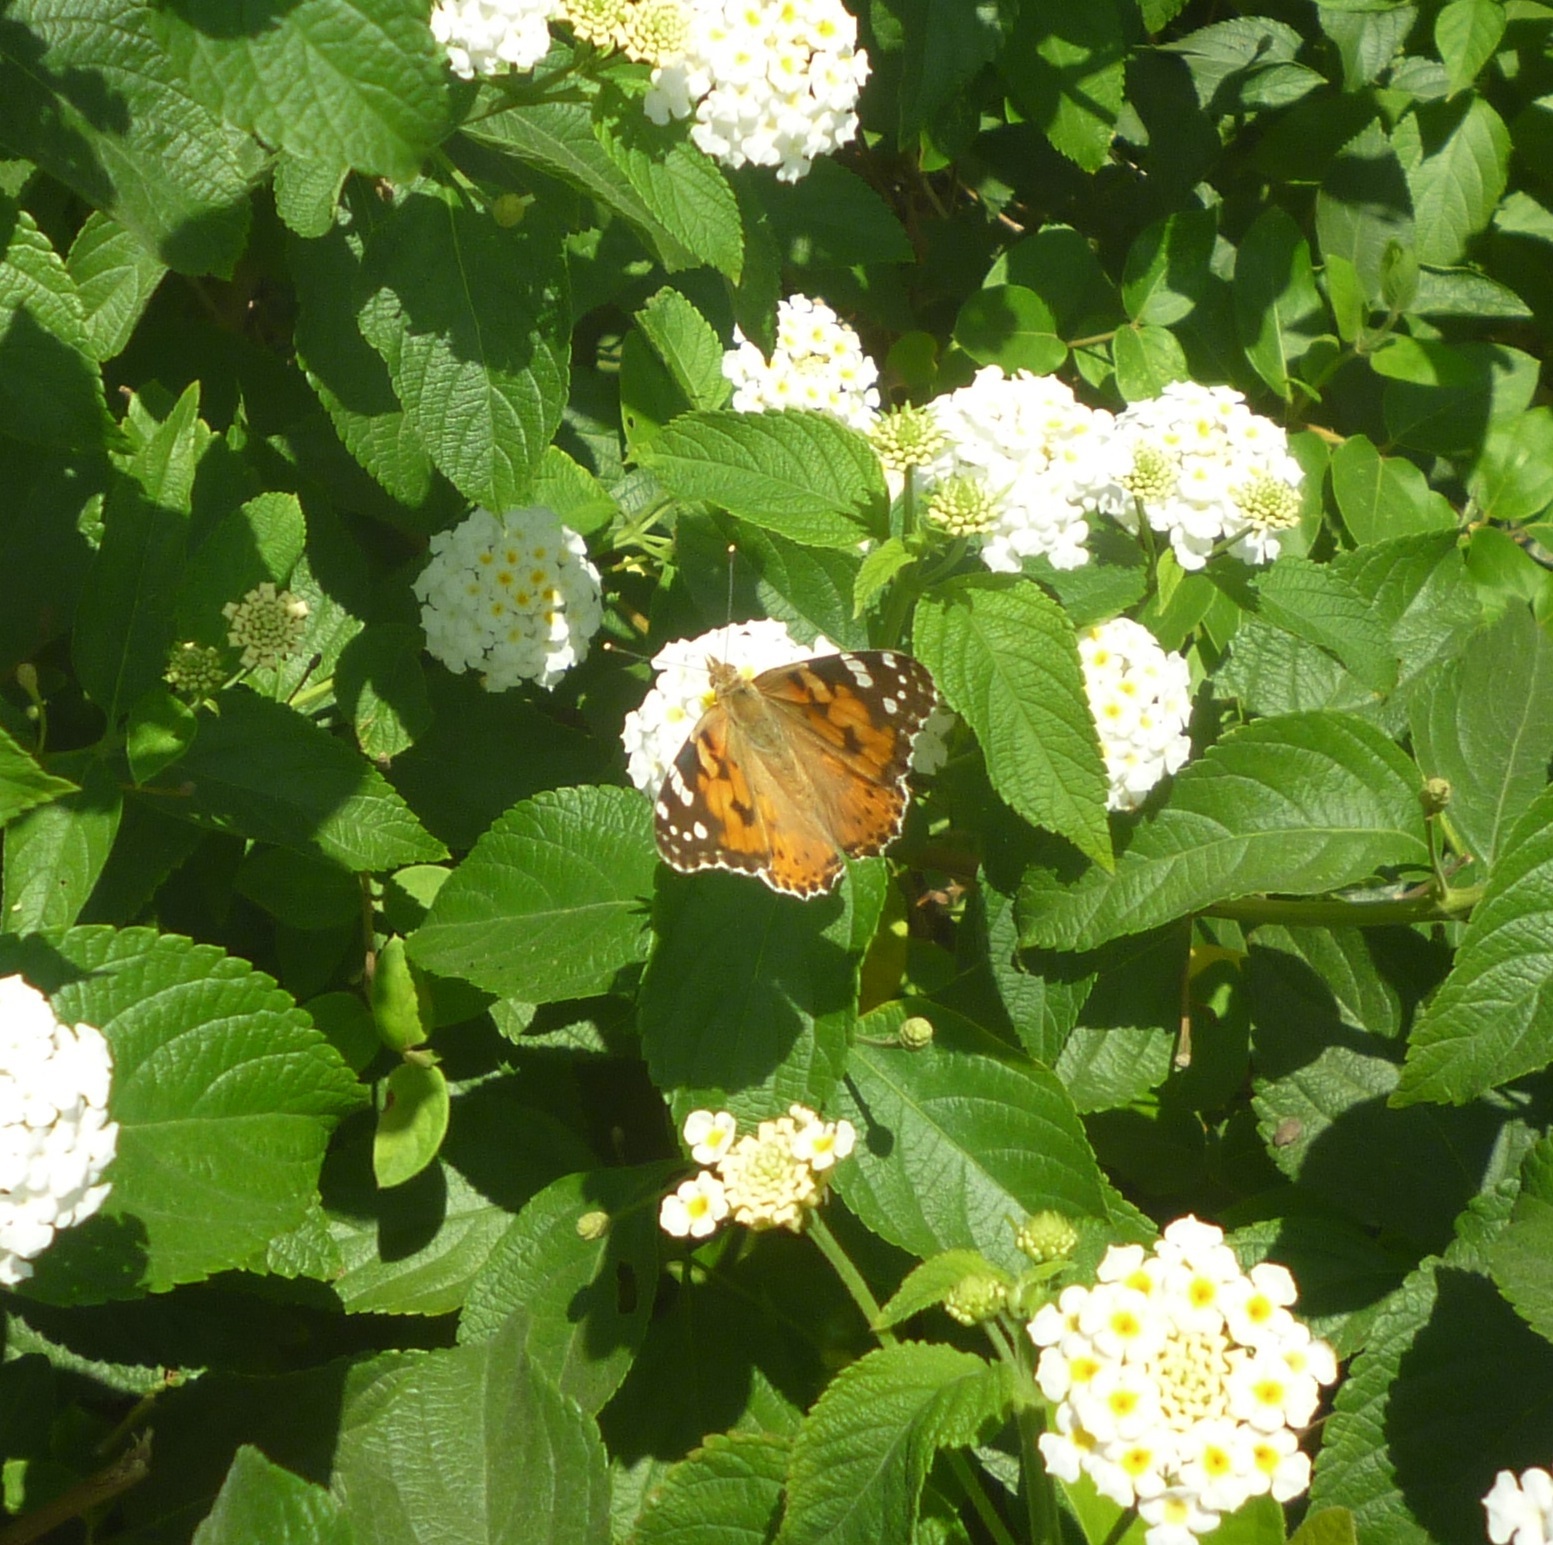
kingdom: Animalia
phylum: Arthropoda
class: Insecta
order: Lepidoptera
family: Nymphalidae
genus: Vanessa
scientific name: Vanessa cardui
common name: Painted lady
